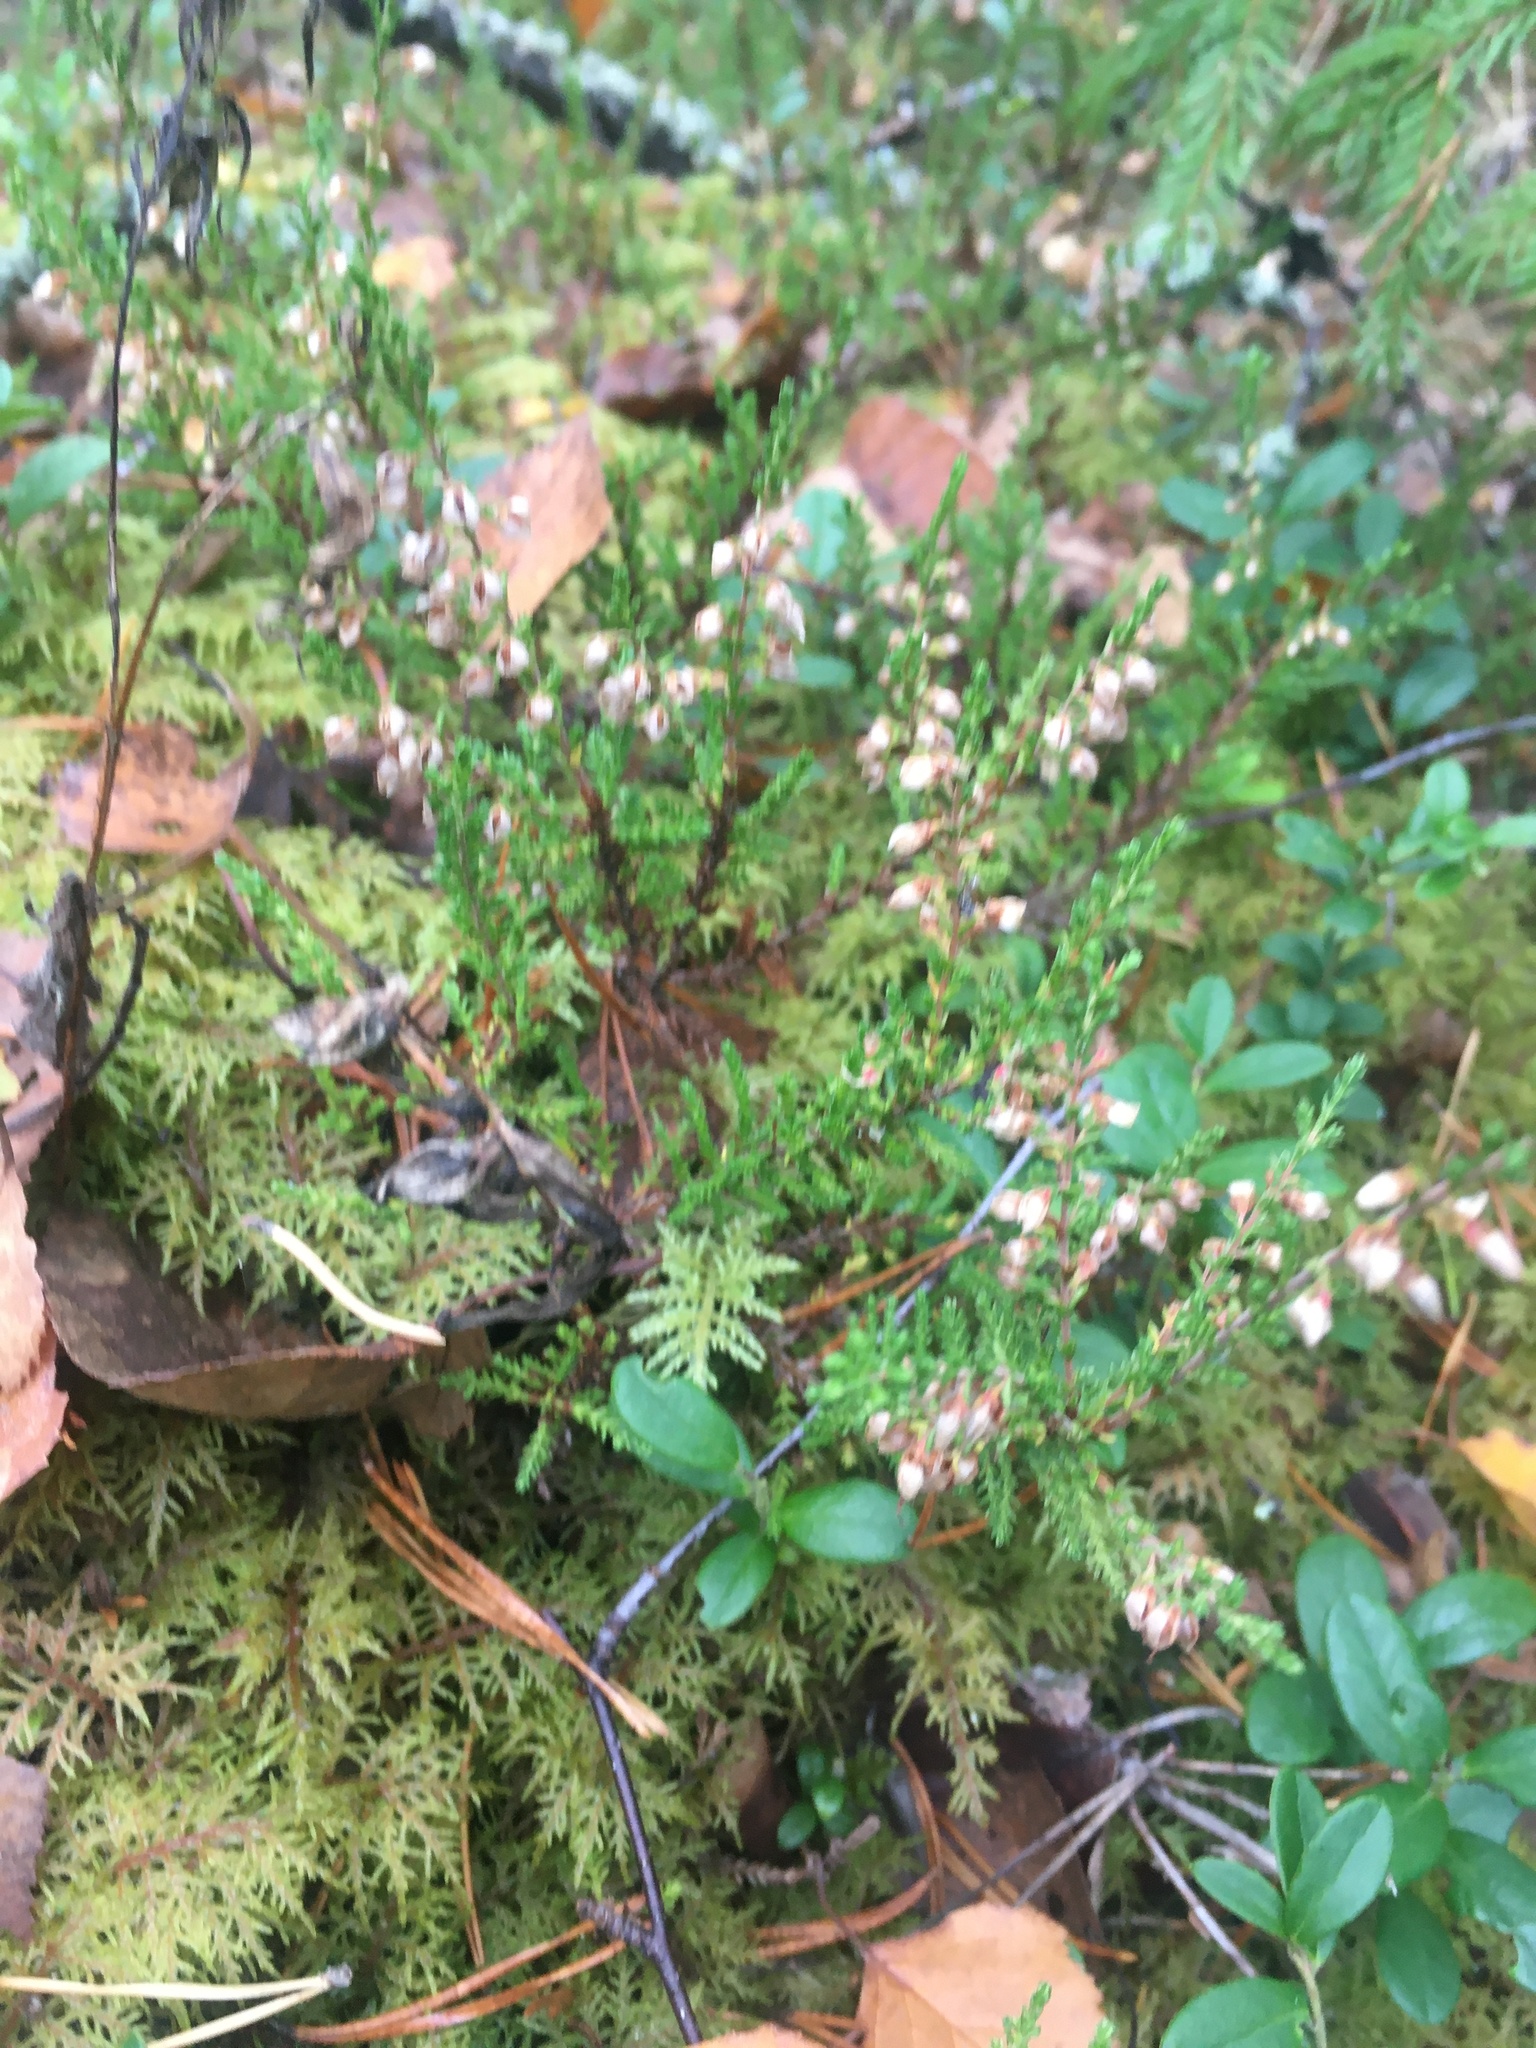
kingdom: Plantae
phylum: Tracheophyta
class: Magnoliopsida
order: Ericales
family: Ericaceae
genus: Calluna
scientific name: Calluna vulgaris
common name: Heather
